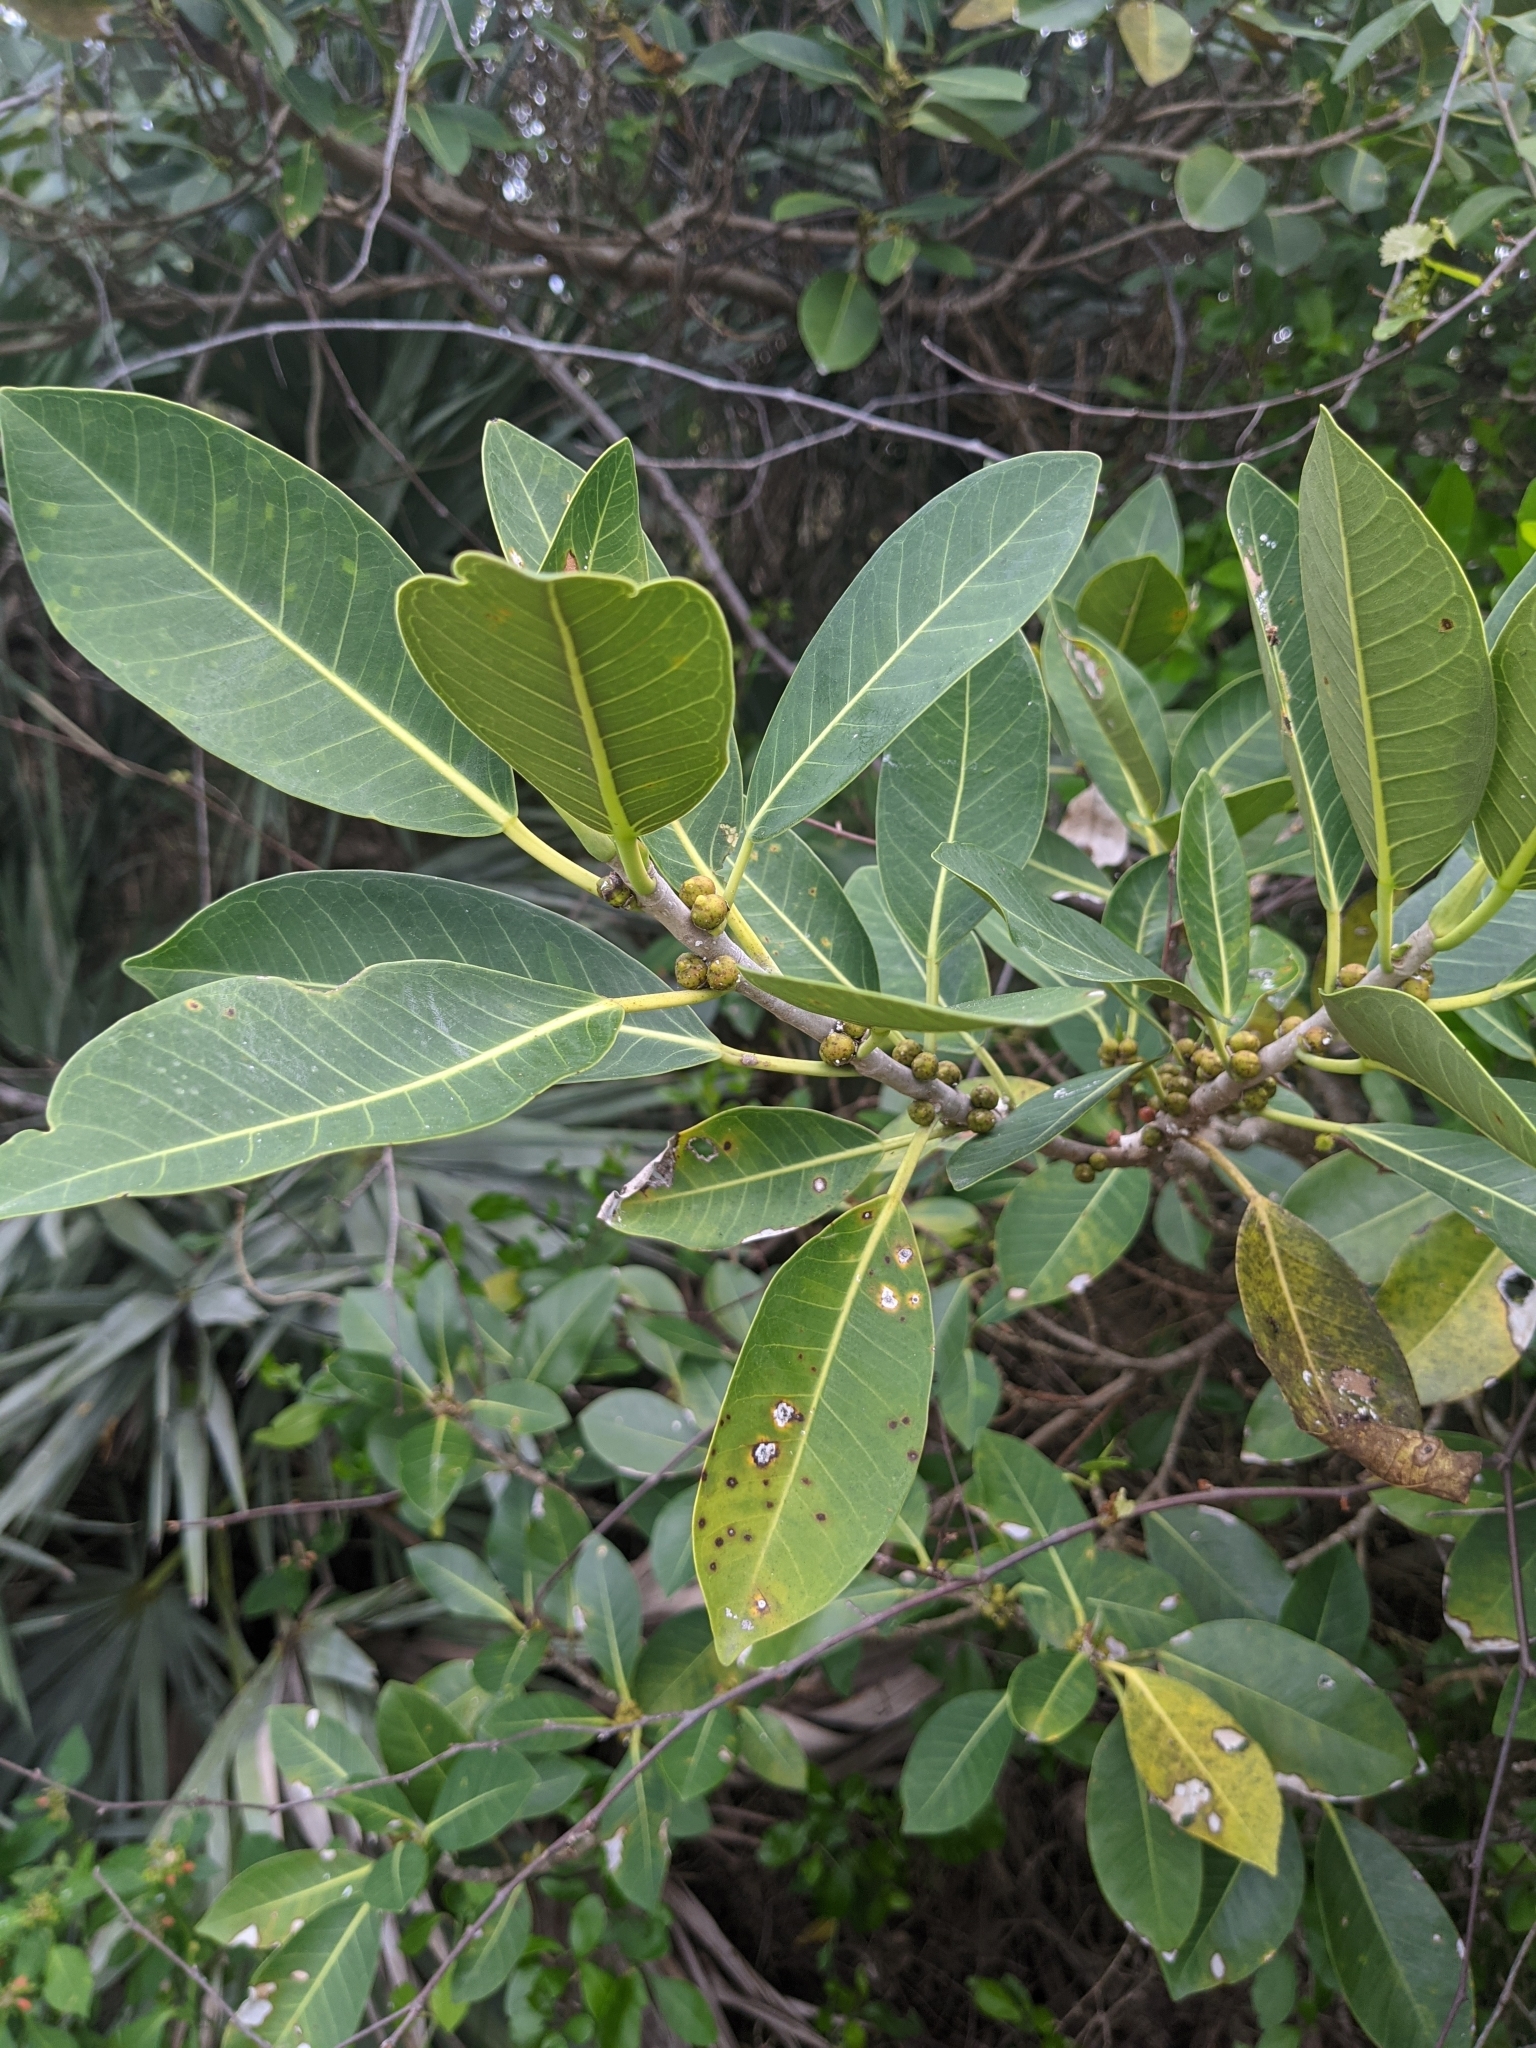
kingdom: Plantae
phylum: Tracheophyta
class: Magnoliopsida
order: Rosales
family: Moraceae
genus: Ficus
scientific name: Ficus aurea
